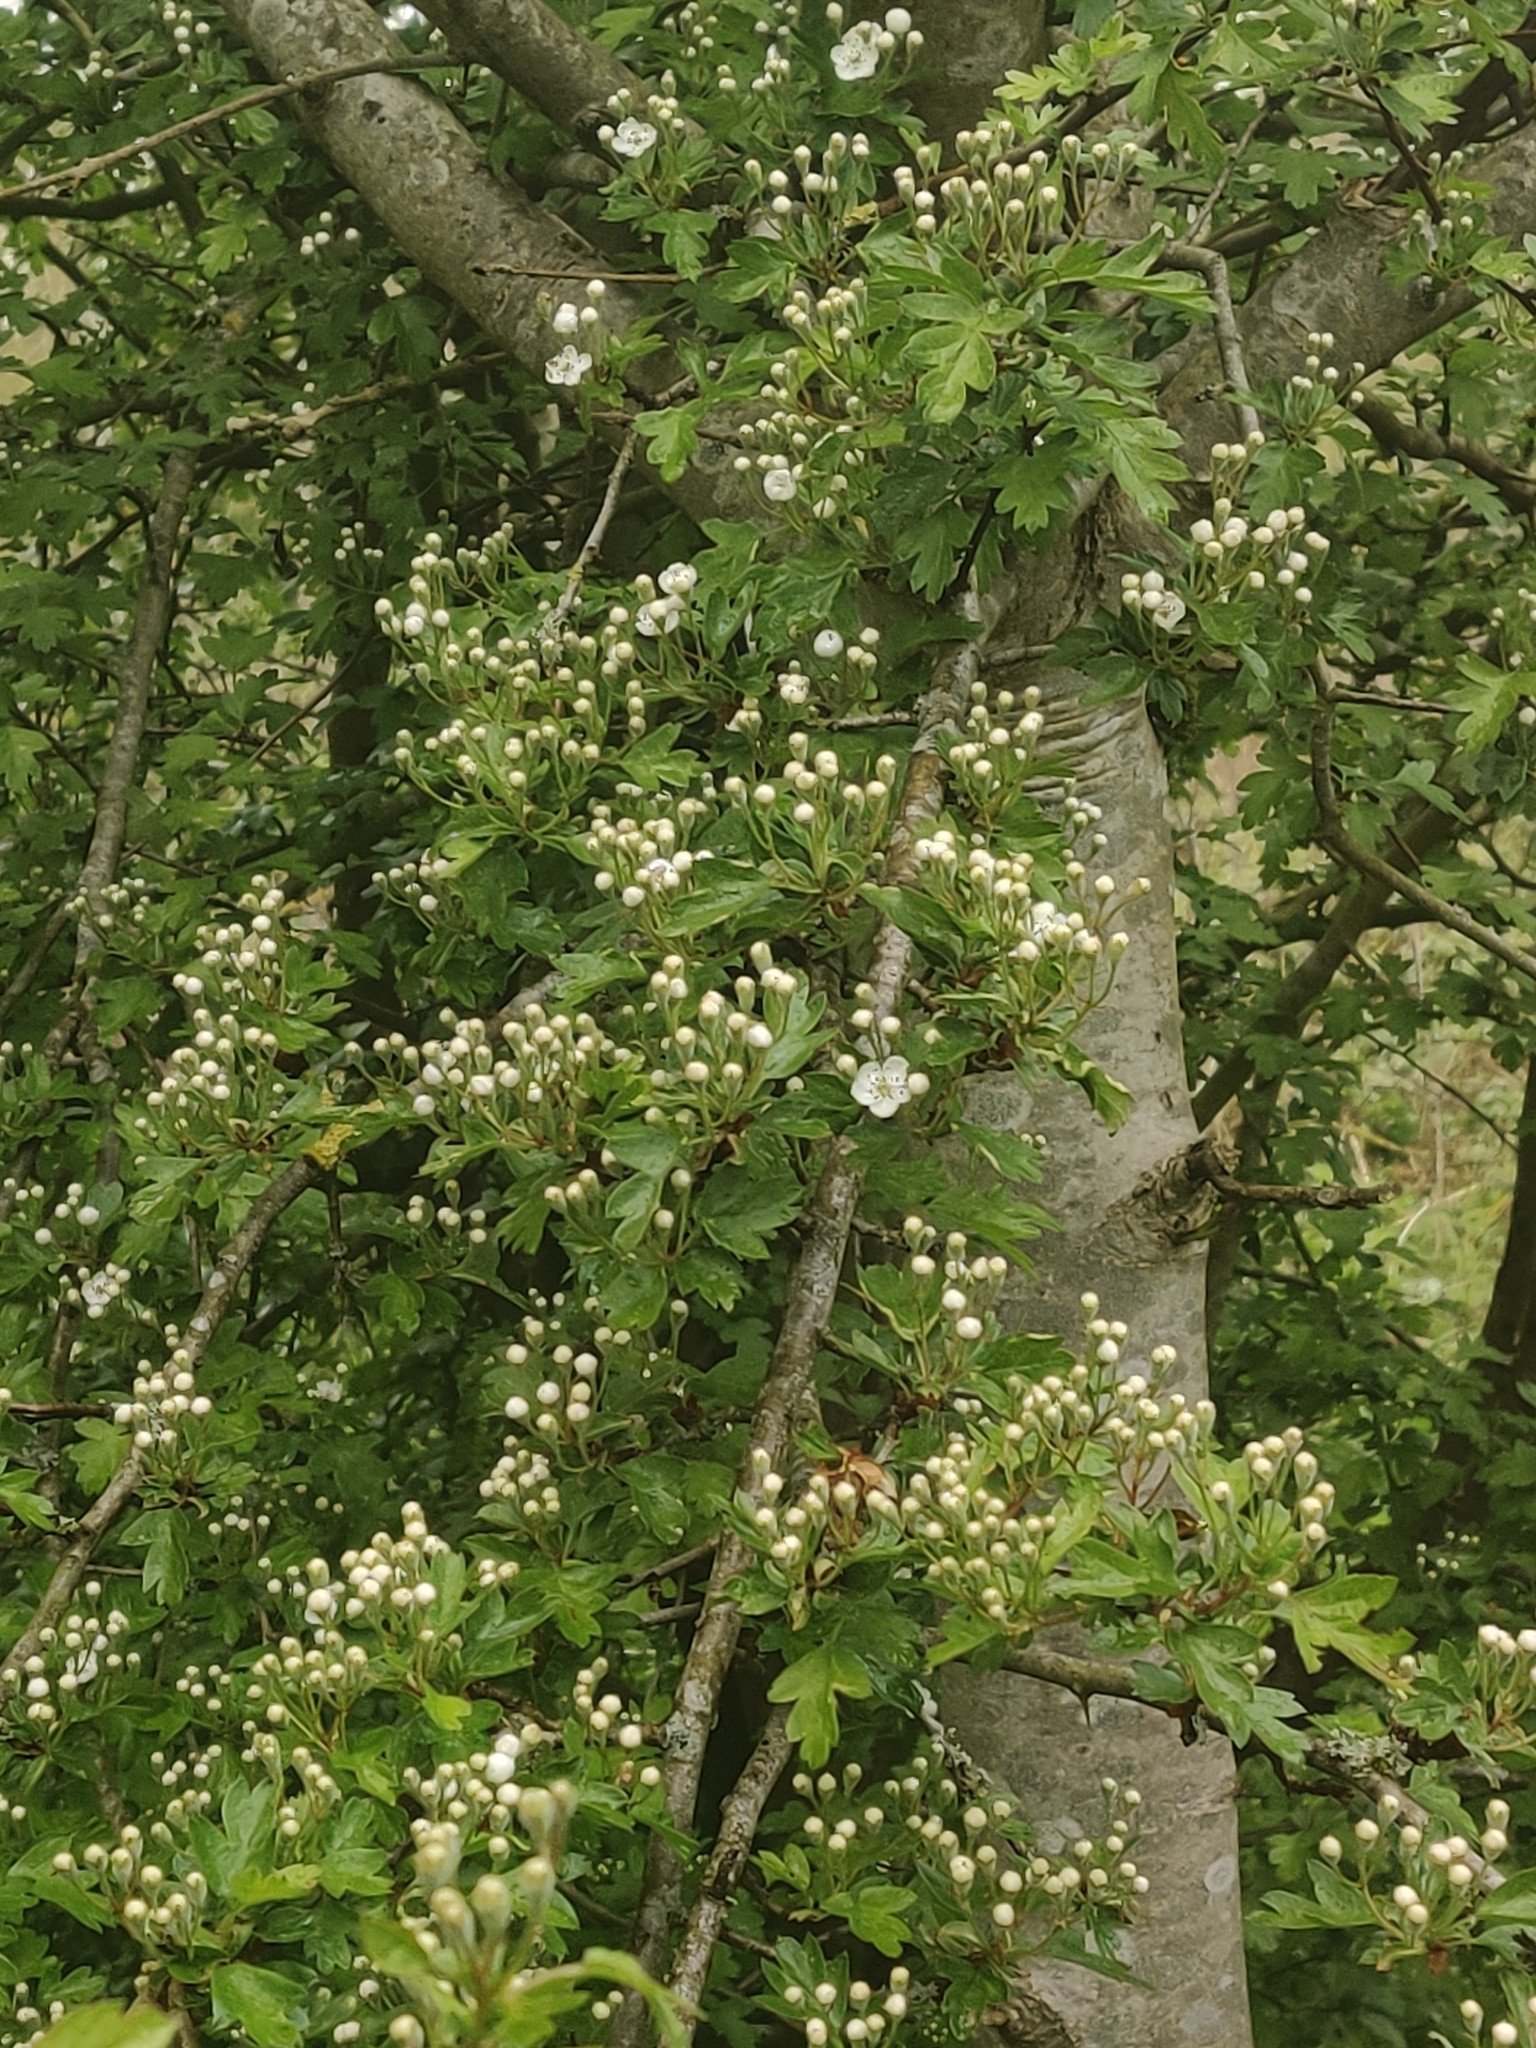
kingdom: Plantae
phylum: Tracheophyta
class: Magnoliopsida
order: Rosales
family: Rosaceae
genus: Crataegus
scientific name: Crataegus monogyna
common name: Hawthorn
